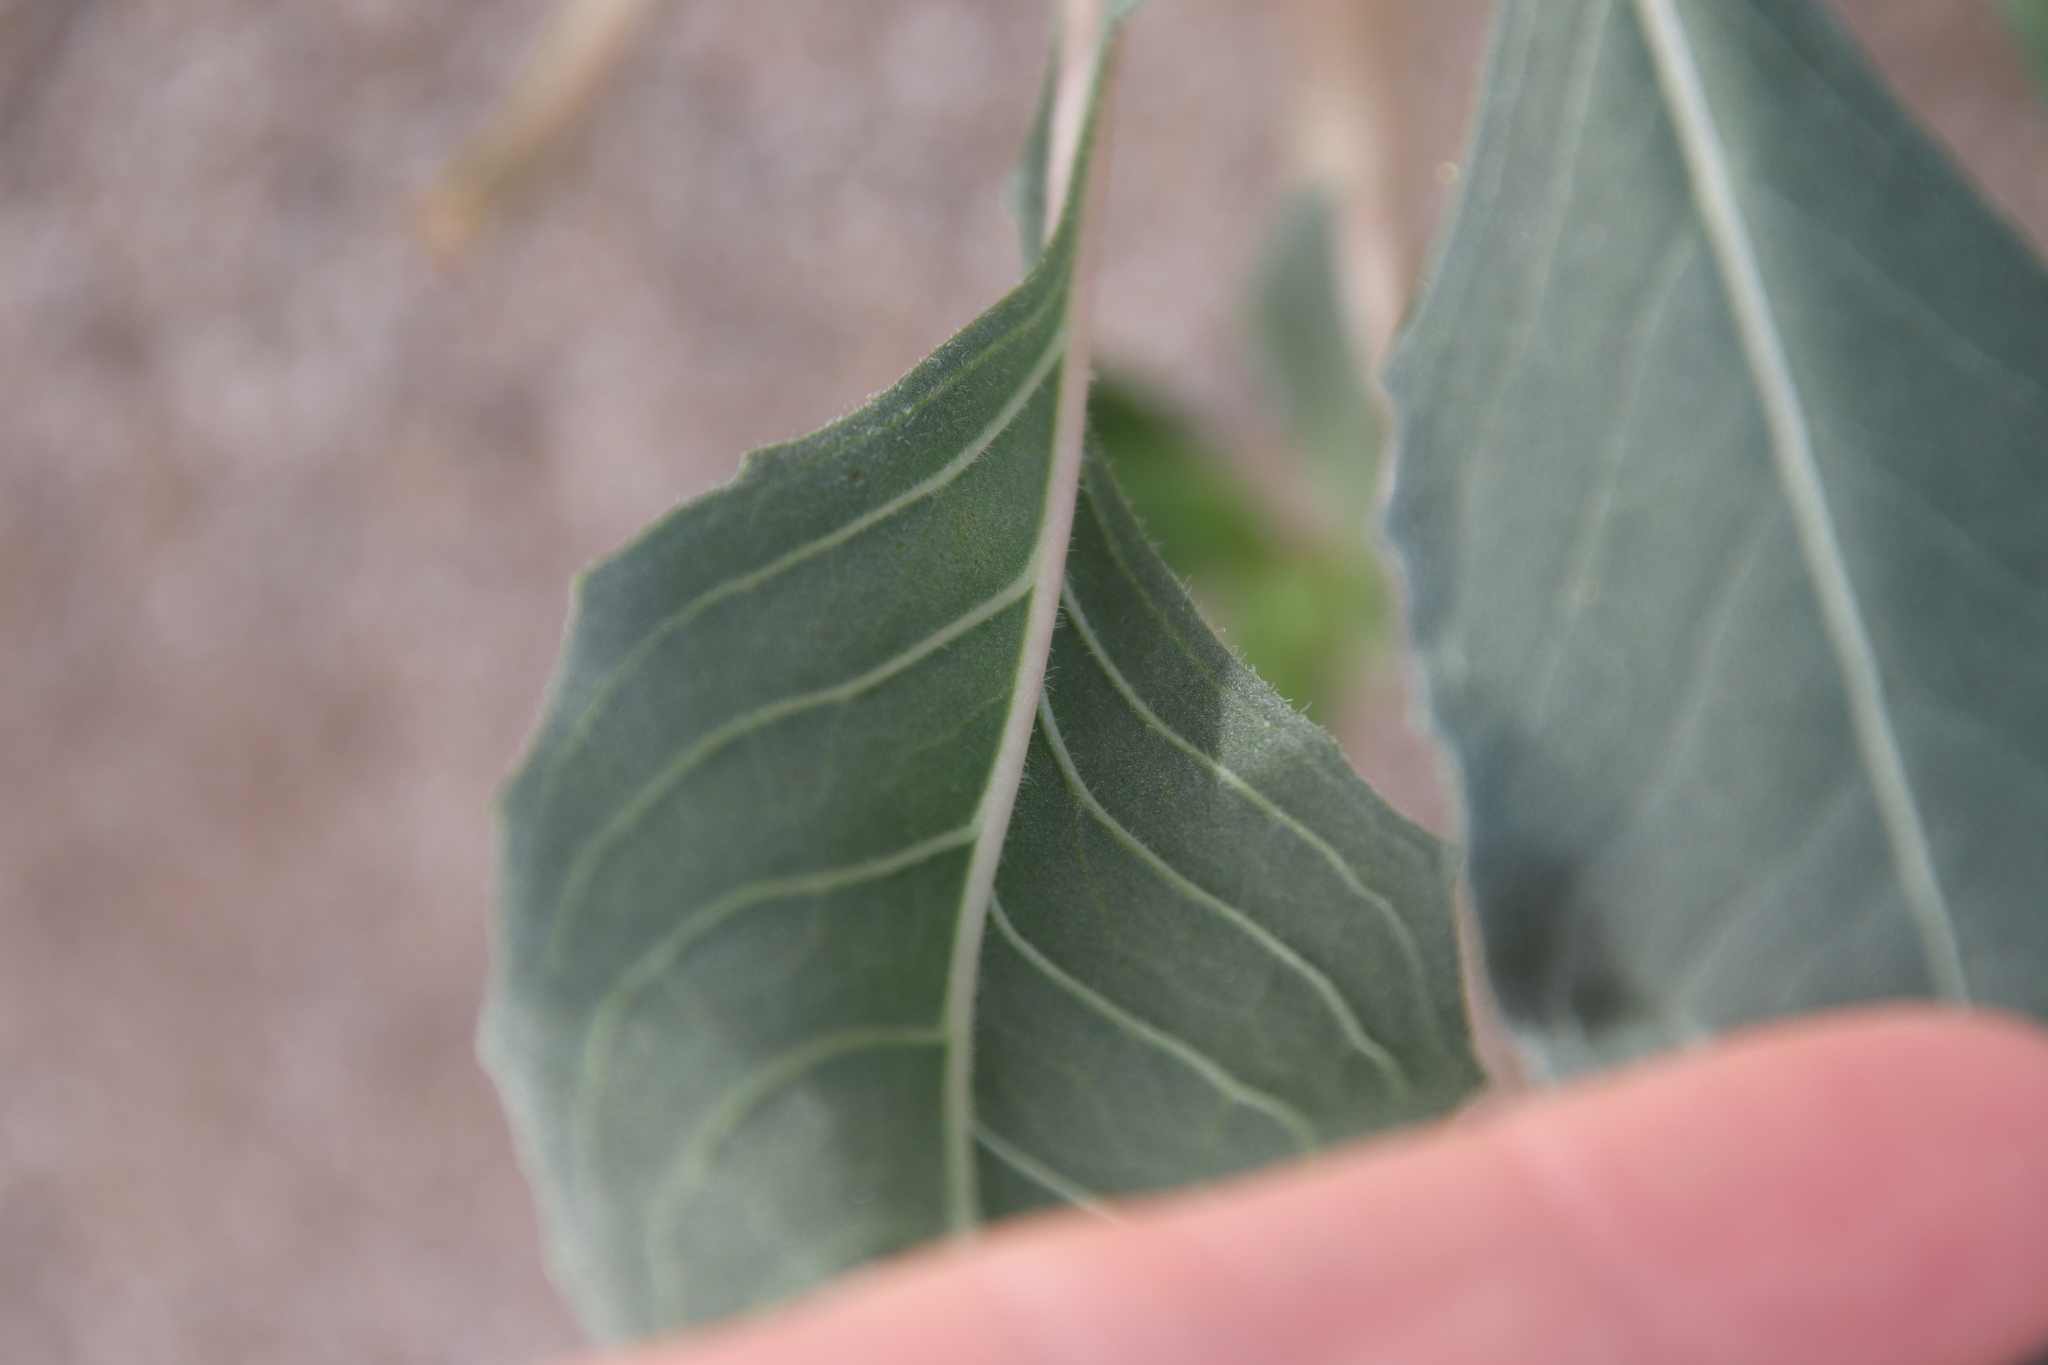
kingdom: Plantae
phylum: Tracheophyta
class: Magnoliopsida
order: Myrtales
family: Onagraceae
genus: Oenothera
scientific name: Oenothera deltoides
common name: Basket evening-primrose
